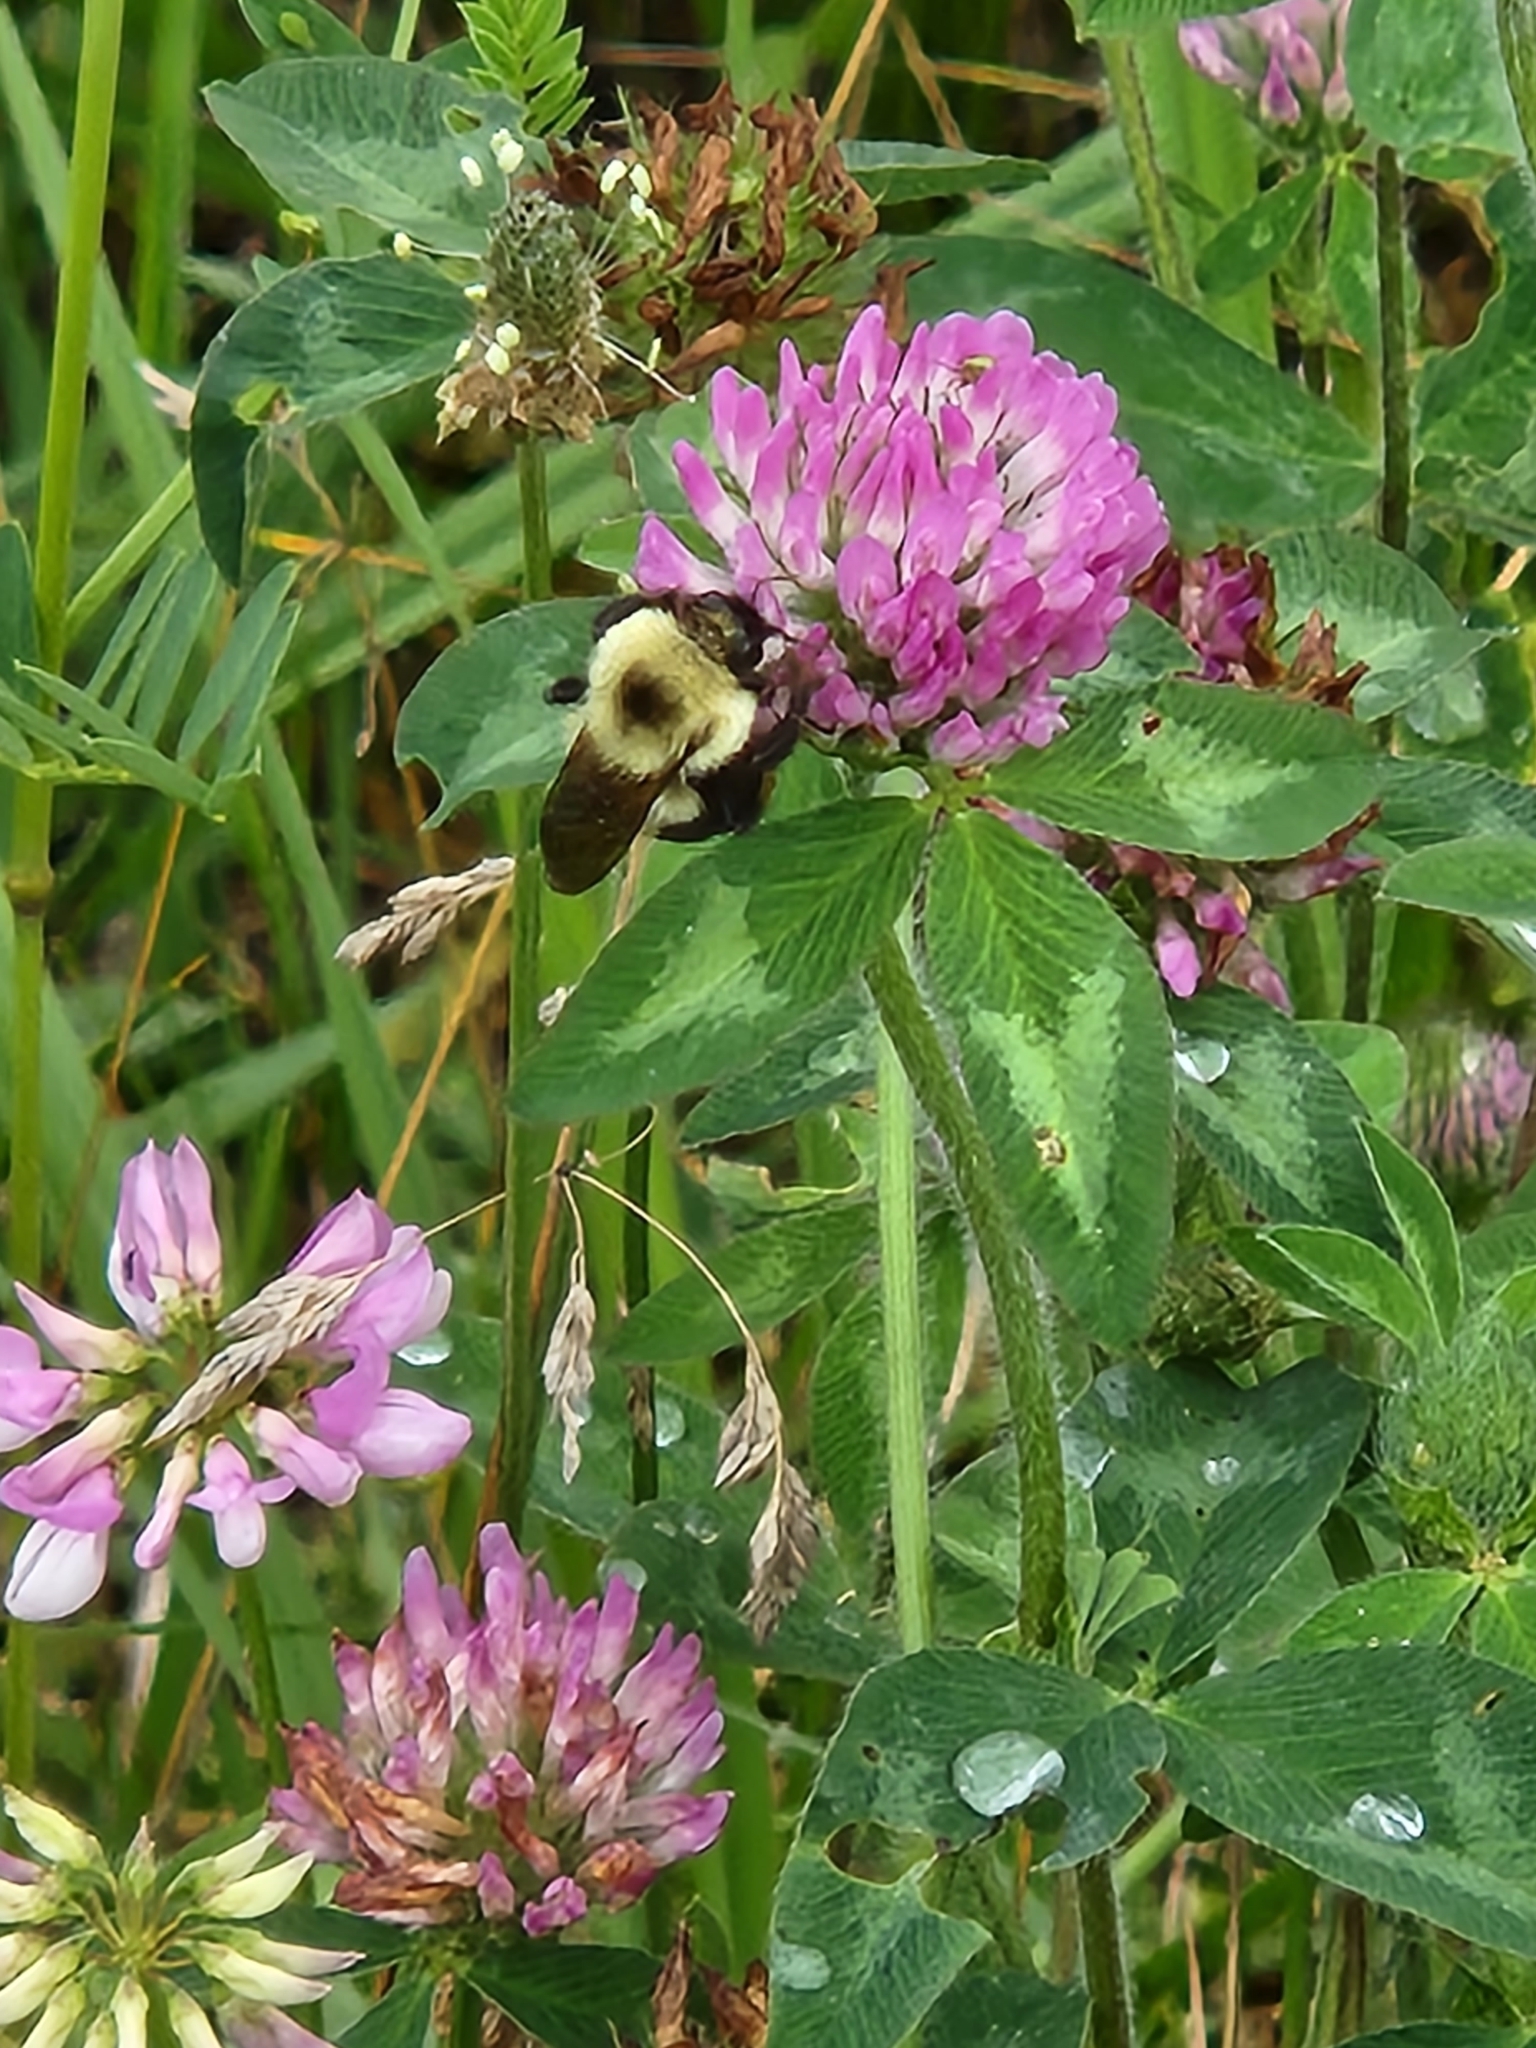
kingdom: Animalia
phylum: Arthropoda
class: Insecta
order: Hymenoptera
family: Apidae
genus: Bombus
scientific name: Bombus bimaculatus
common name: Two-spotted bumble bee
